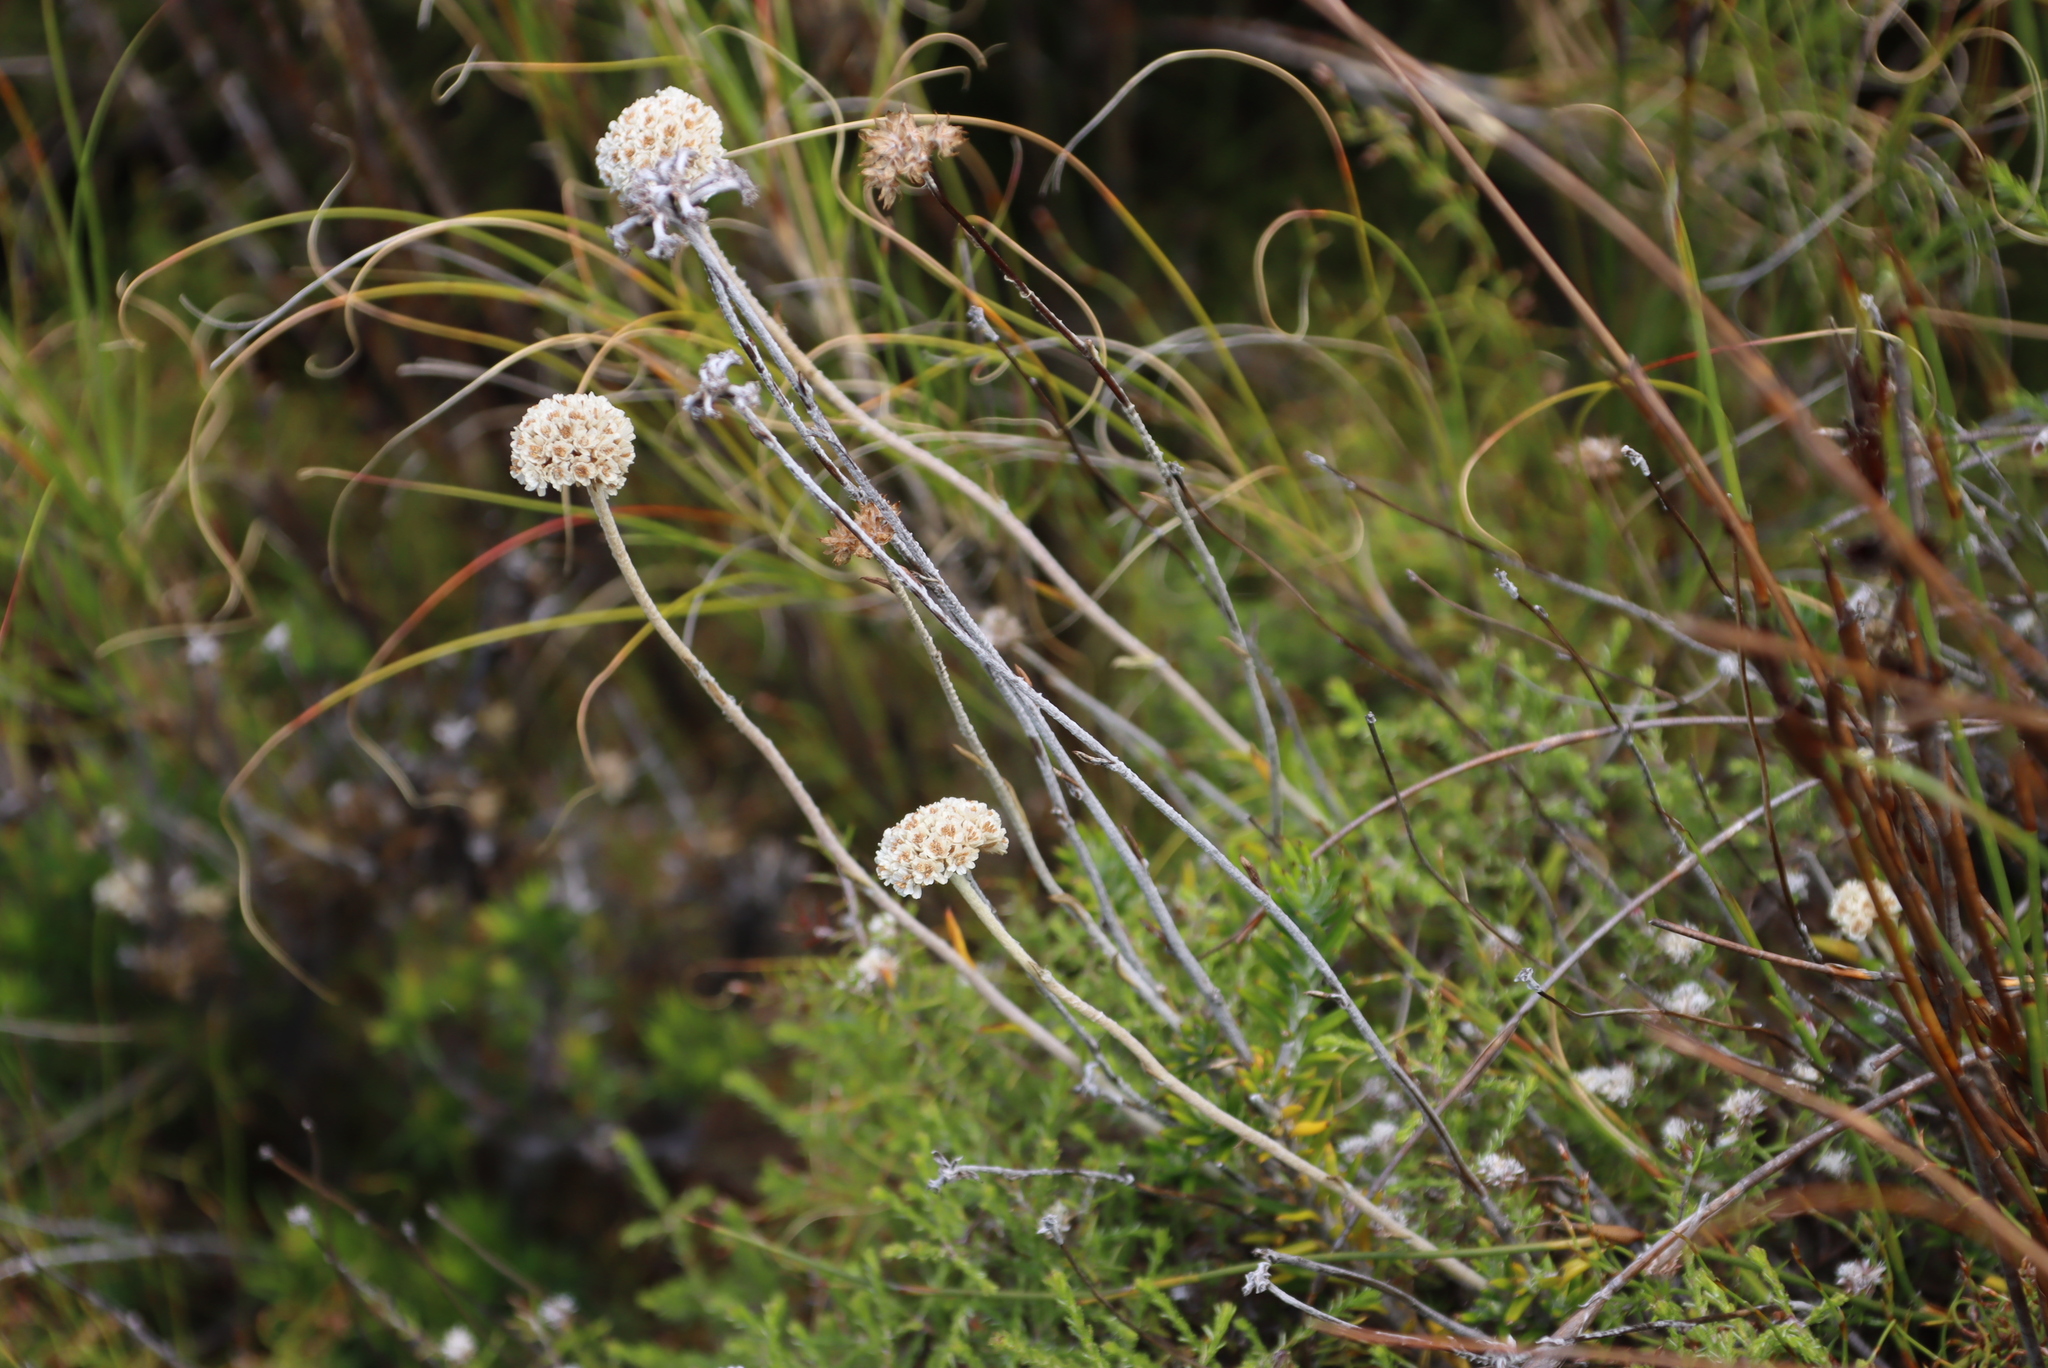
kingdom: Plantae
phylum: Tracheophyta
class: Magnoliopsida
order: Asterales
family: Asteraceae
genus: Anaxeton
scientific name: Anaxeton laeve
